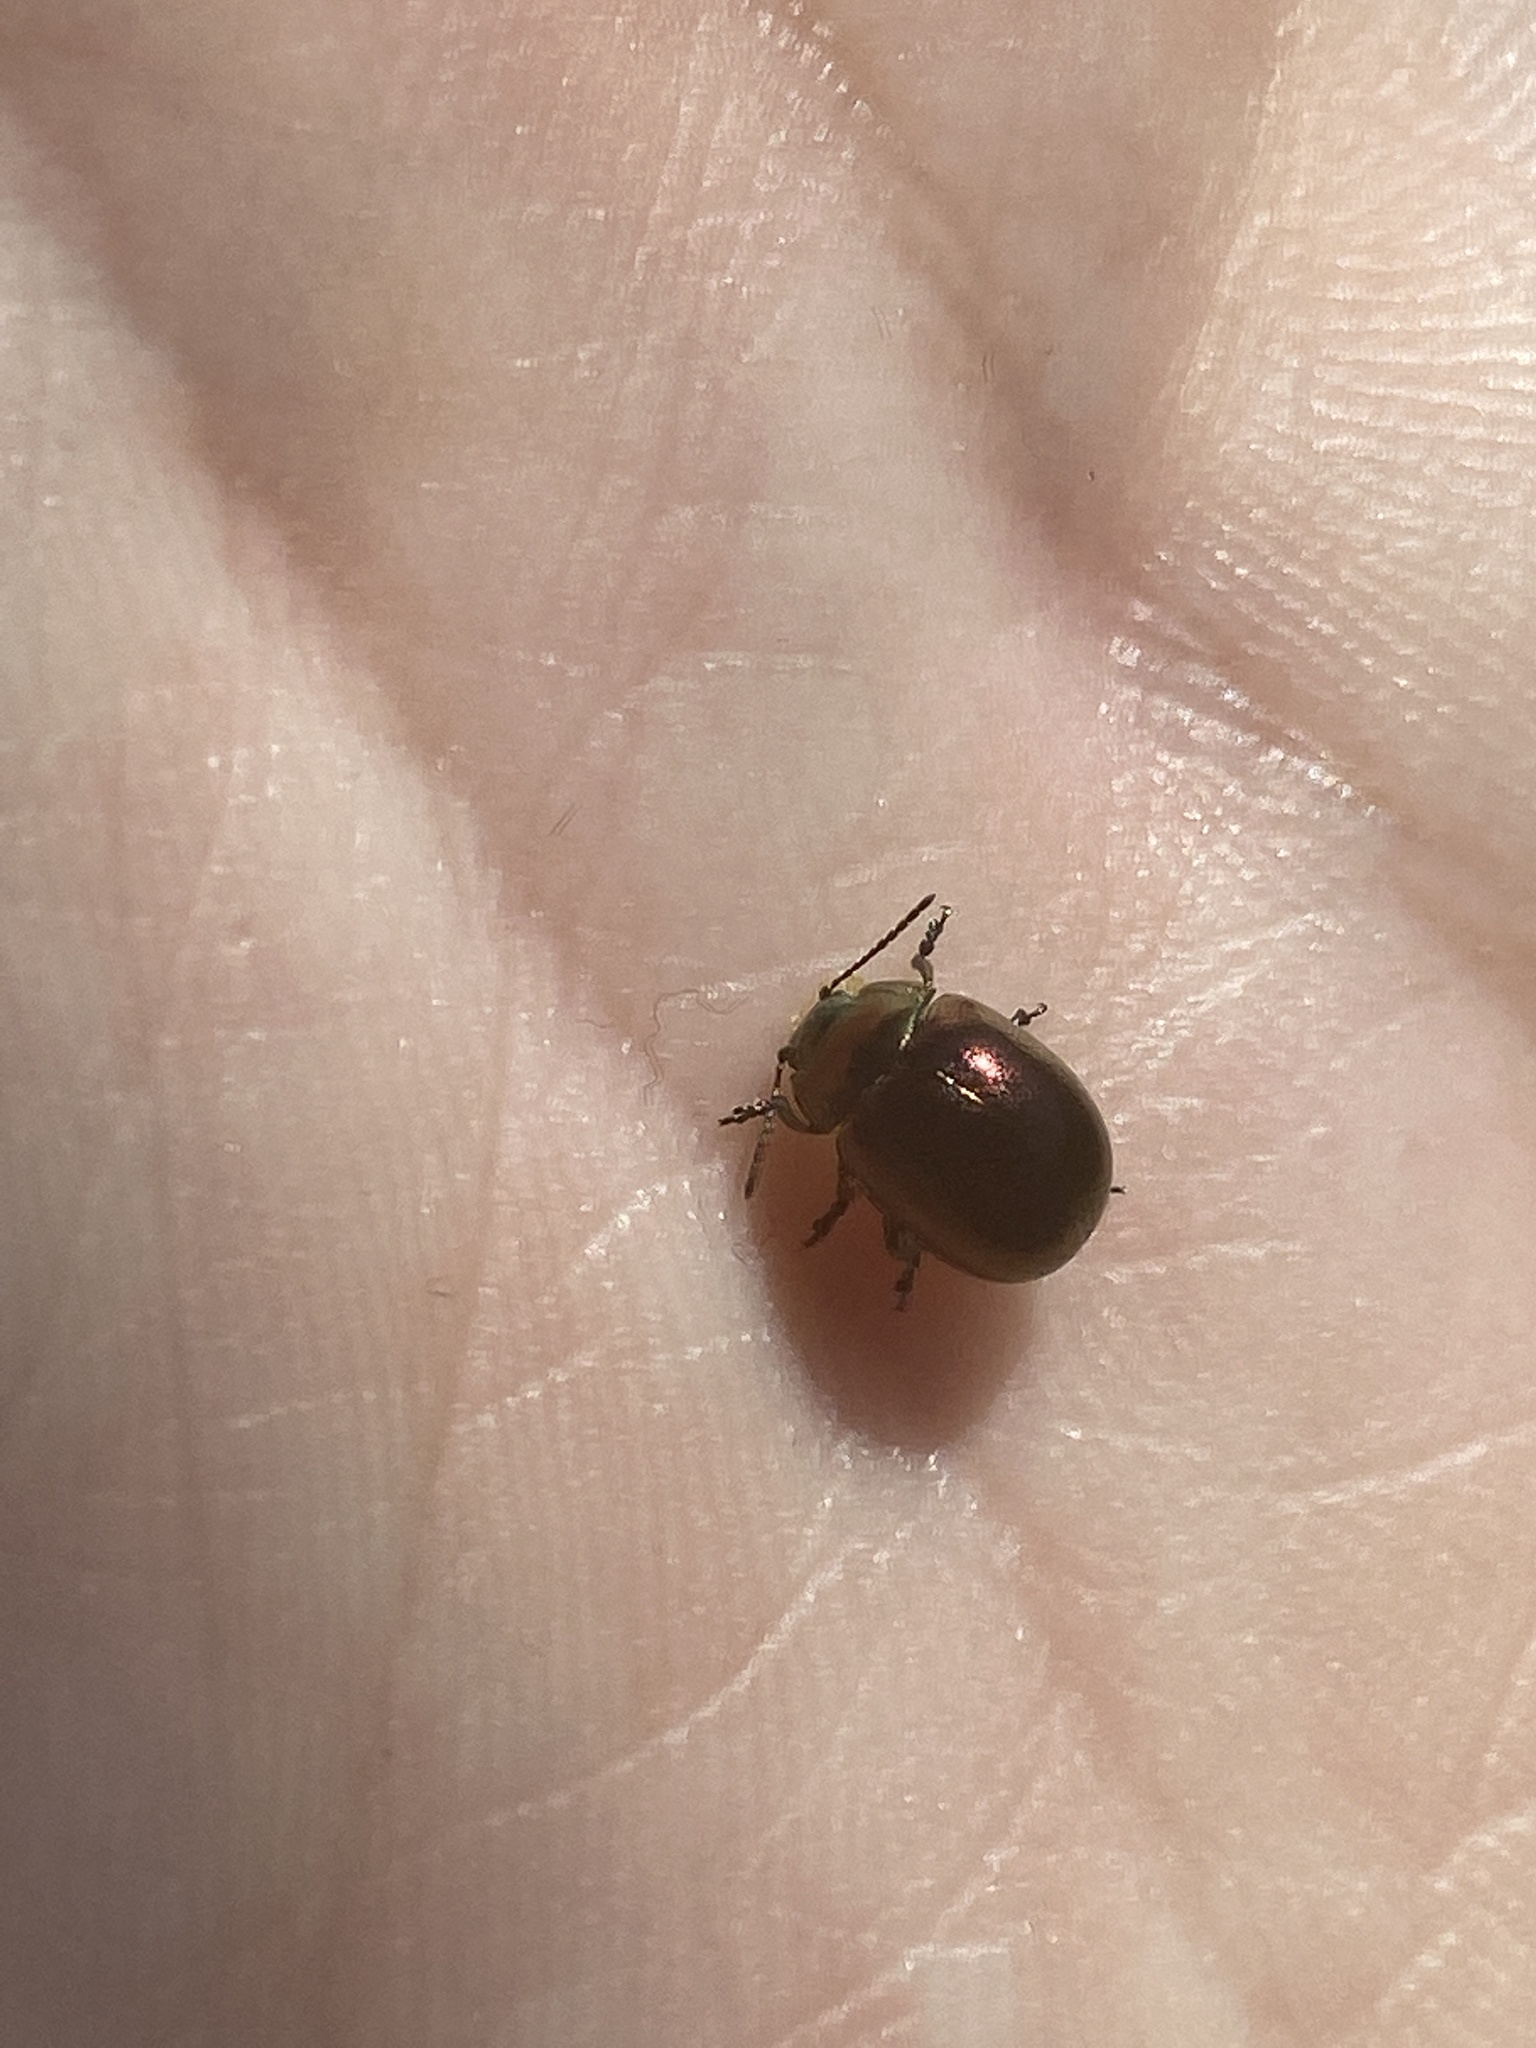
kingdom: Animalia
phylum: Arthropoda
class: Insecta
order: Coleoptera
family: Chrysomelidae
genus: Chrysolina
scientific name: Chrysolina varians
